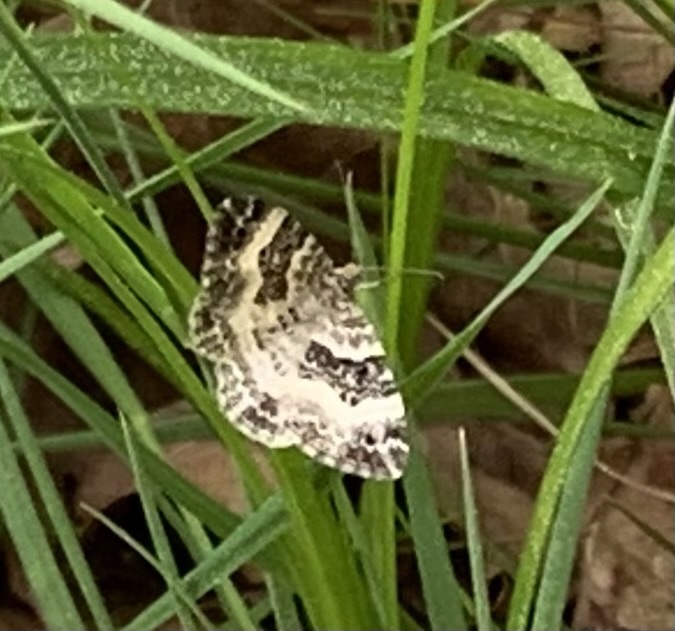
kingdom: Animalia
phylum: Arthropoda
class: Insecta
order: Lepidoptera
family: Geometridae
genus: Epirrhoe
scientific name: Epirrhoe alternata
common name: Common carpet
